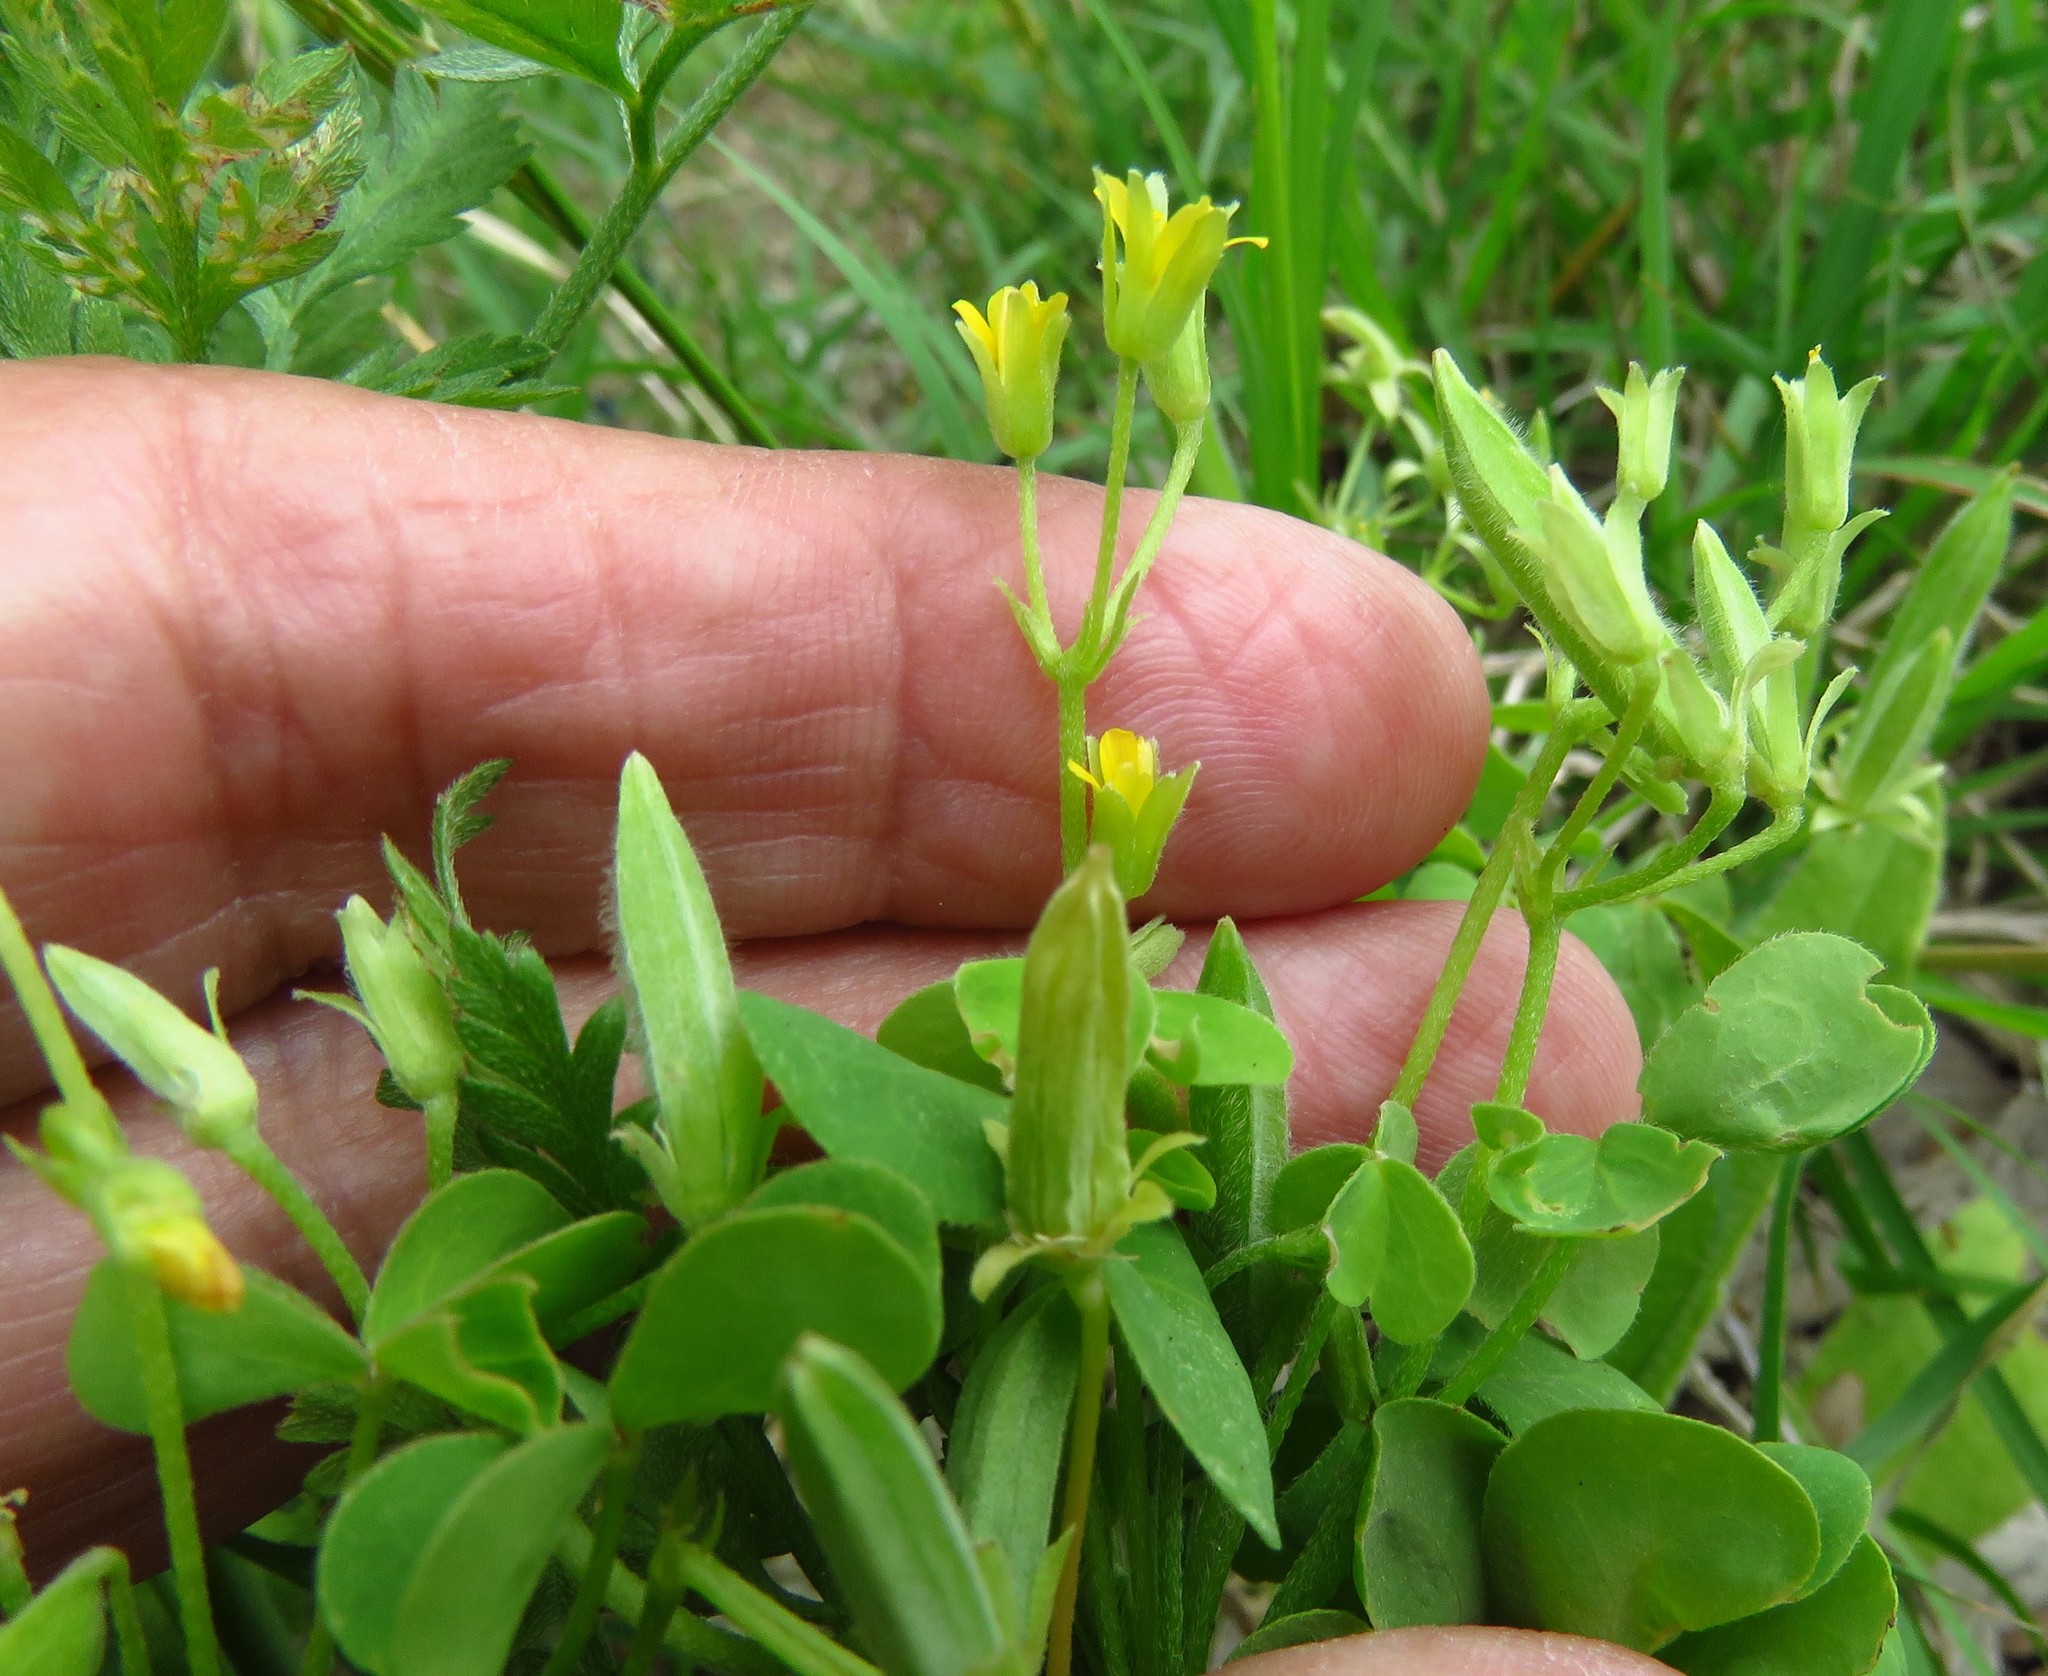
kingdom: Plantae
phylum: Tracheophyta
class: Magnoliopsida
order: Oxalidales
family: Oxalidaceae
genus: Oxalis
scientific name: Oxalis dillenii
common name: Sussex yellow-sorrel
